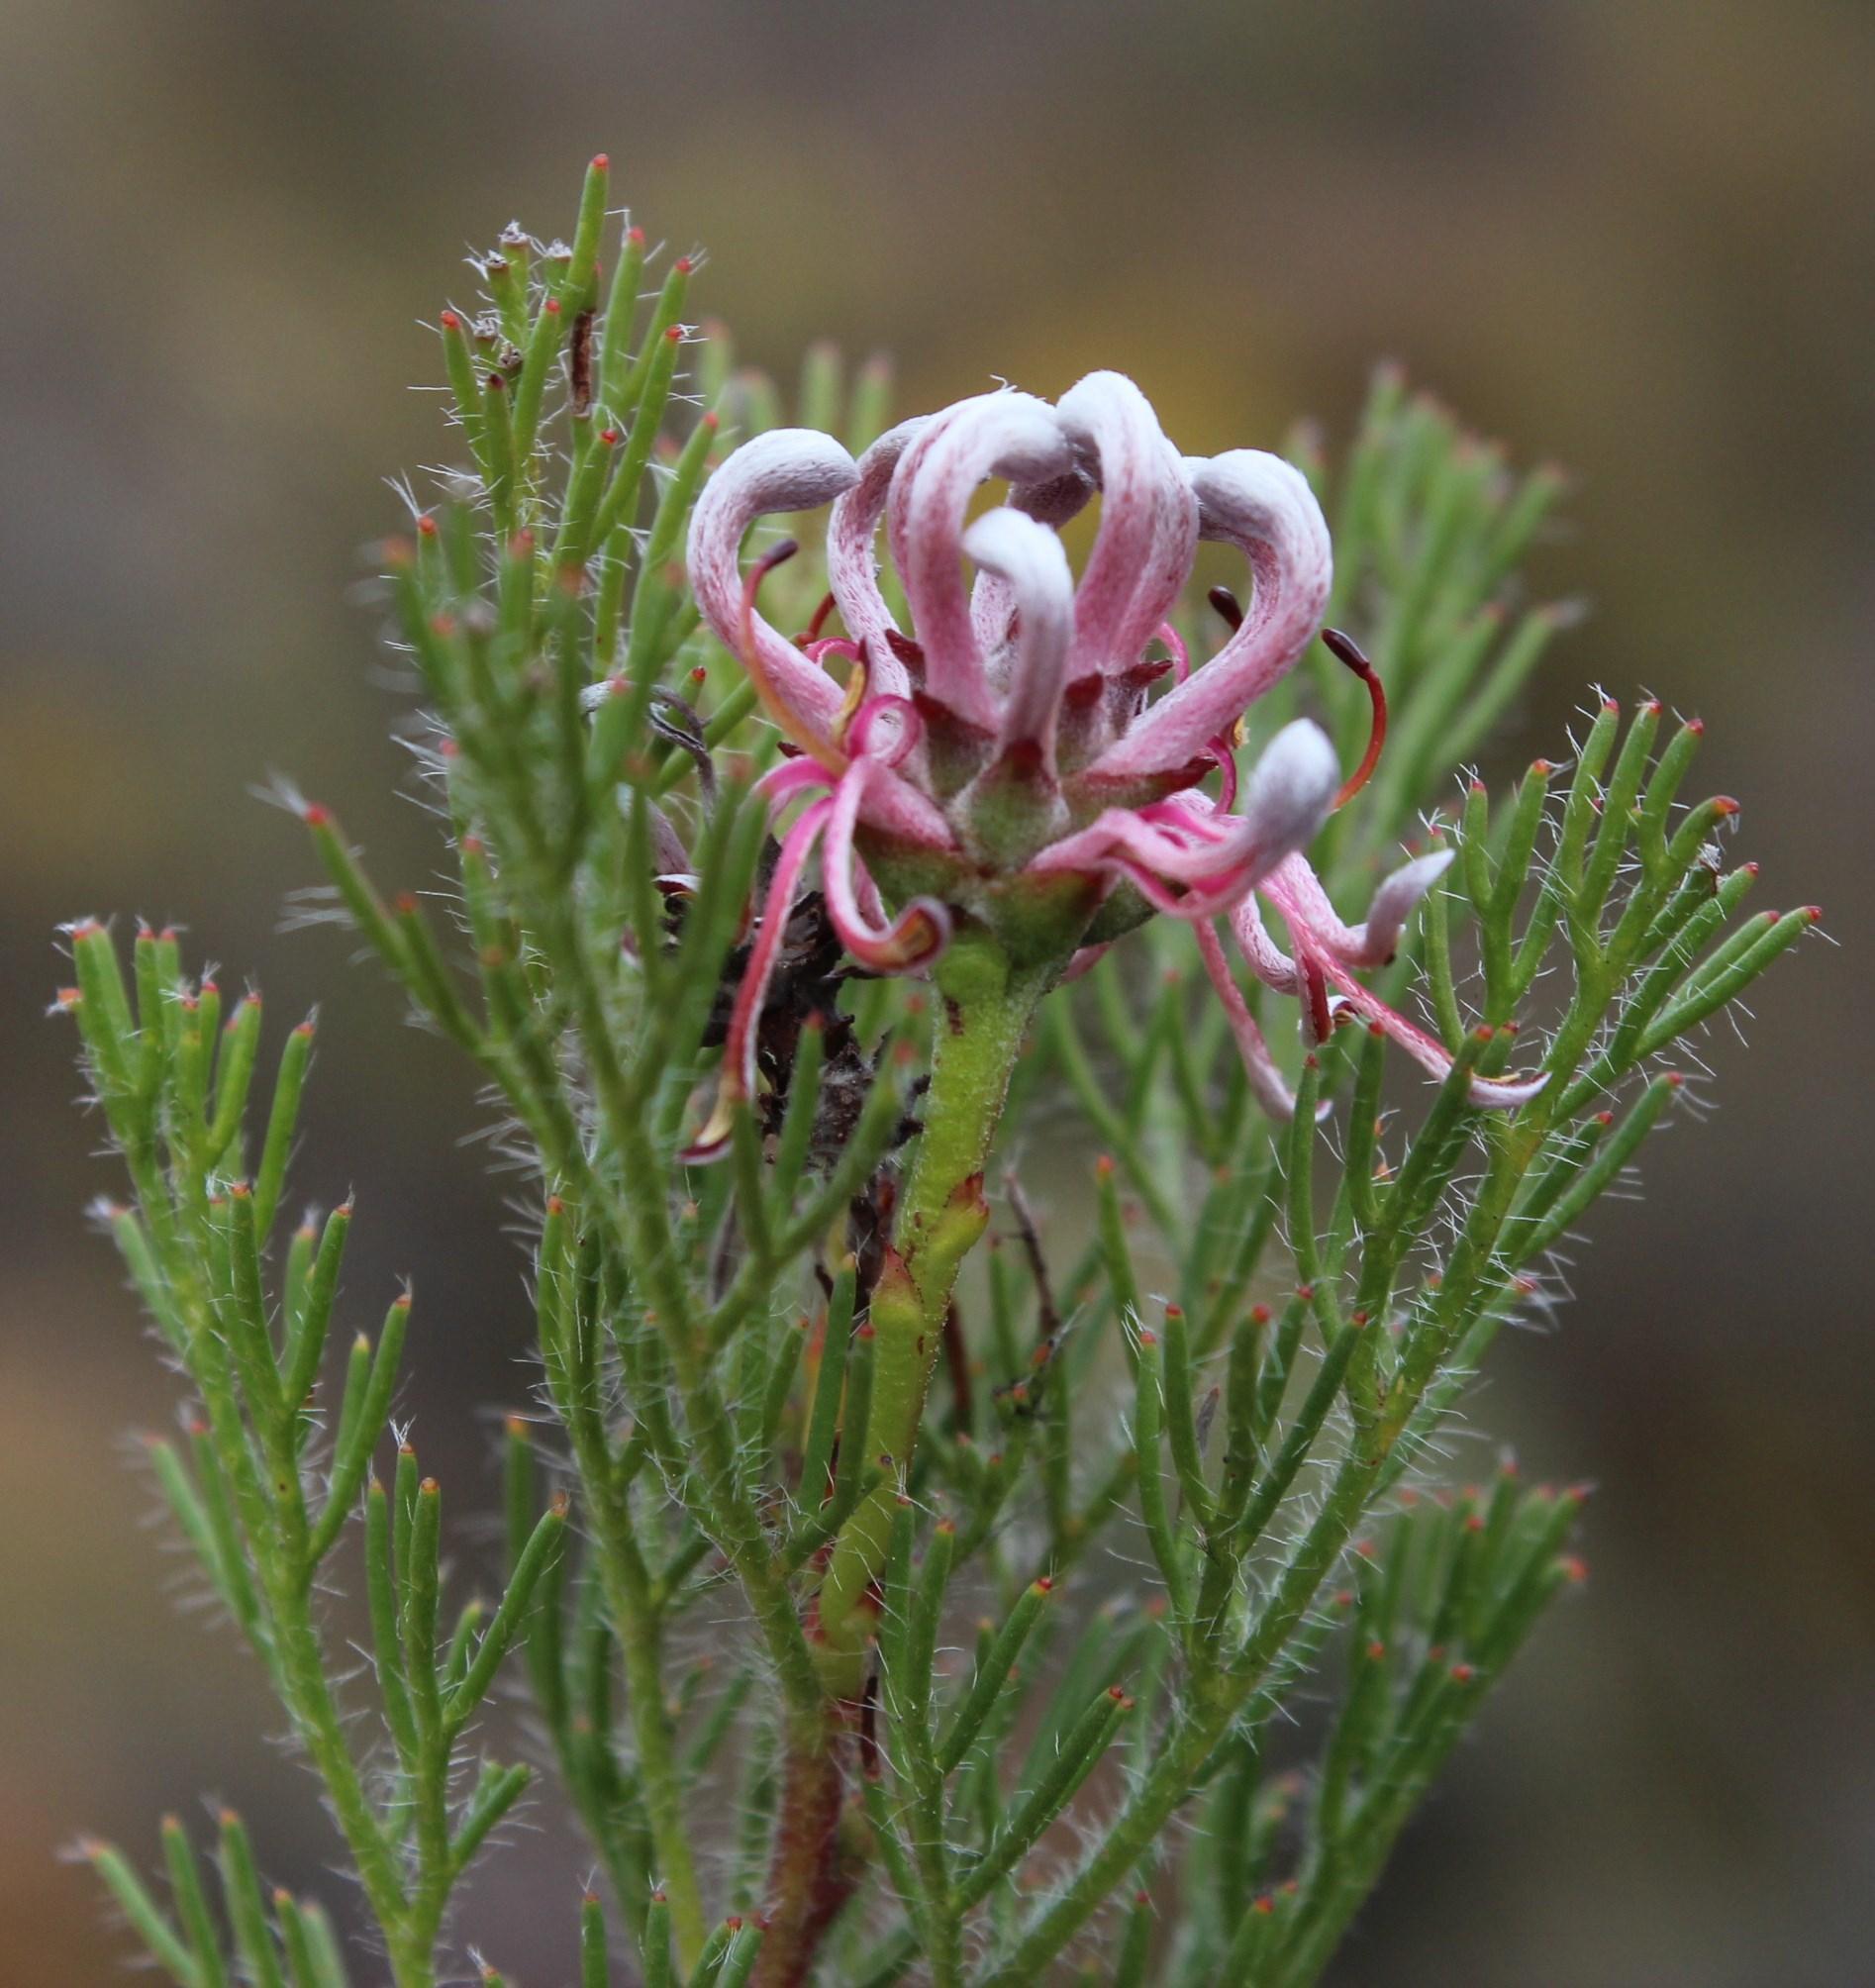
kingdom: Plantae
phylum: Tracheophyta
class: Magnoliopsida
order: Proteales
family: Proteaceae
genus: Serruria
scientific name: Serruria gremialis
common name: Riviersonderend spiderhead
